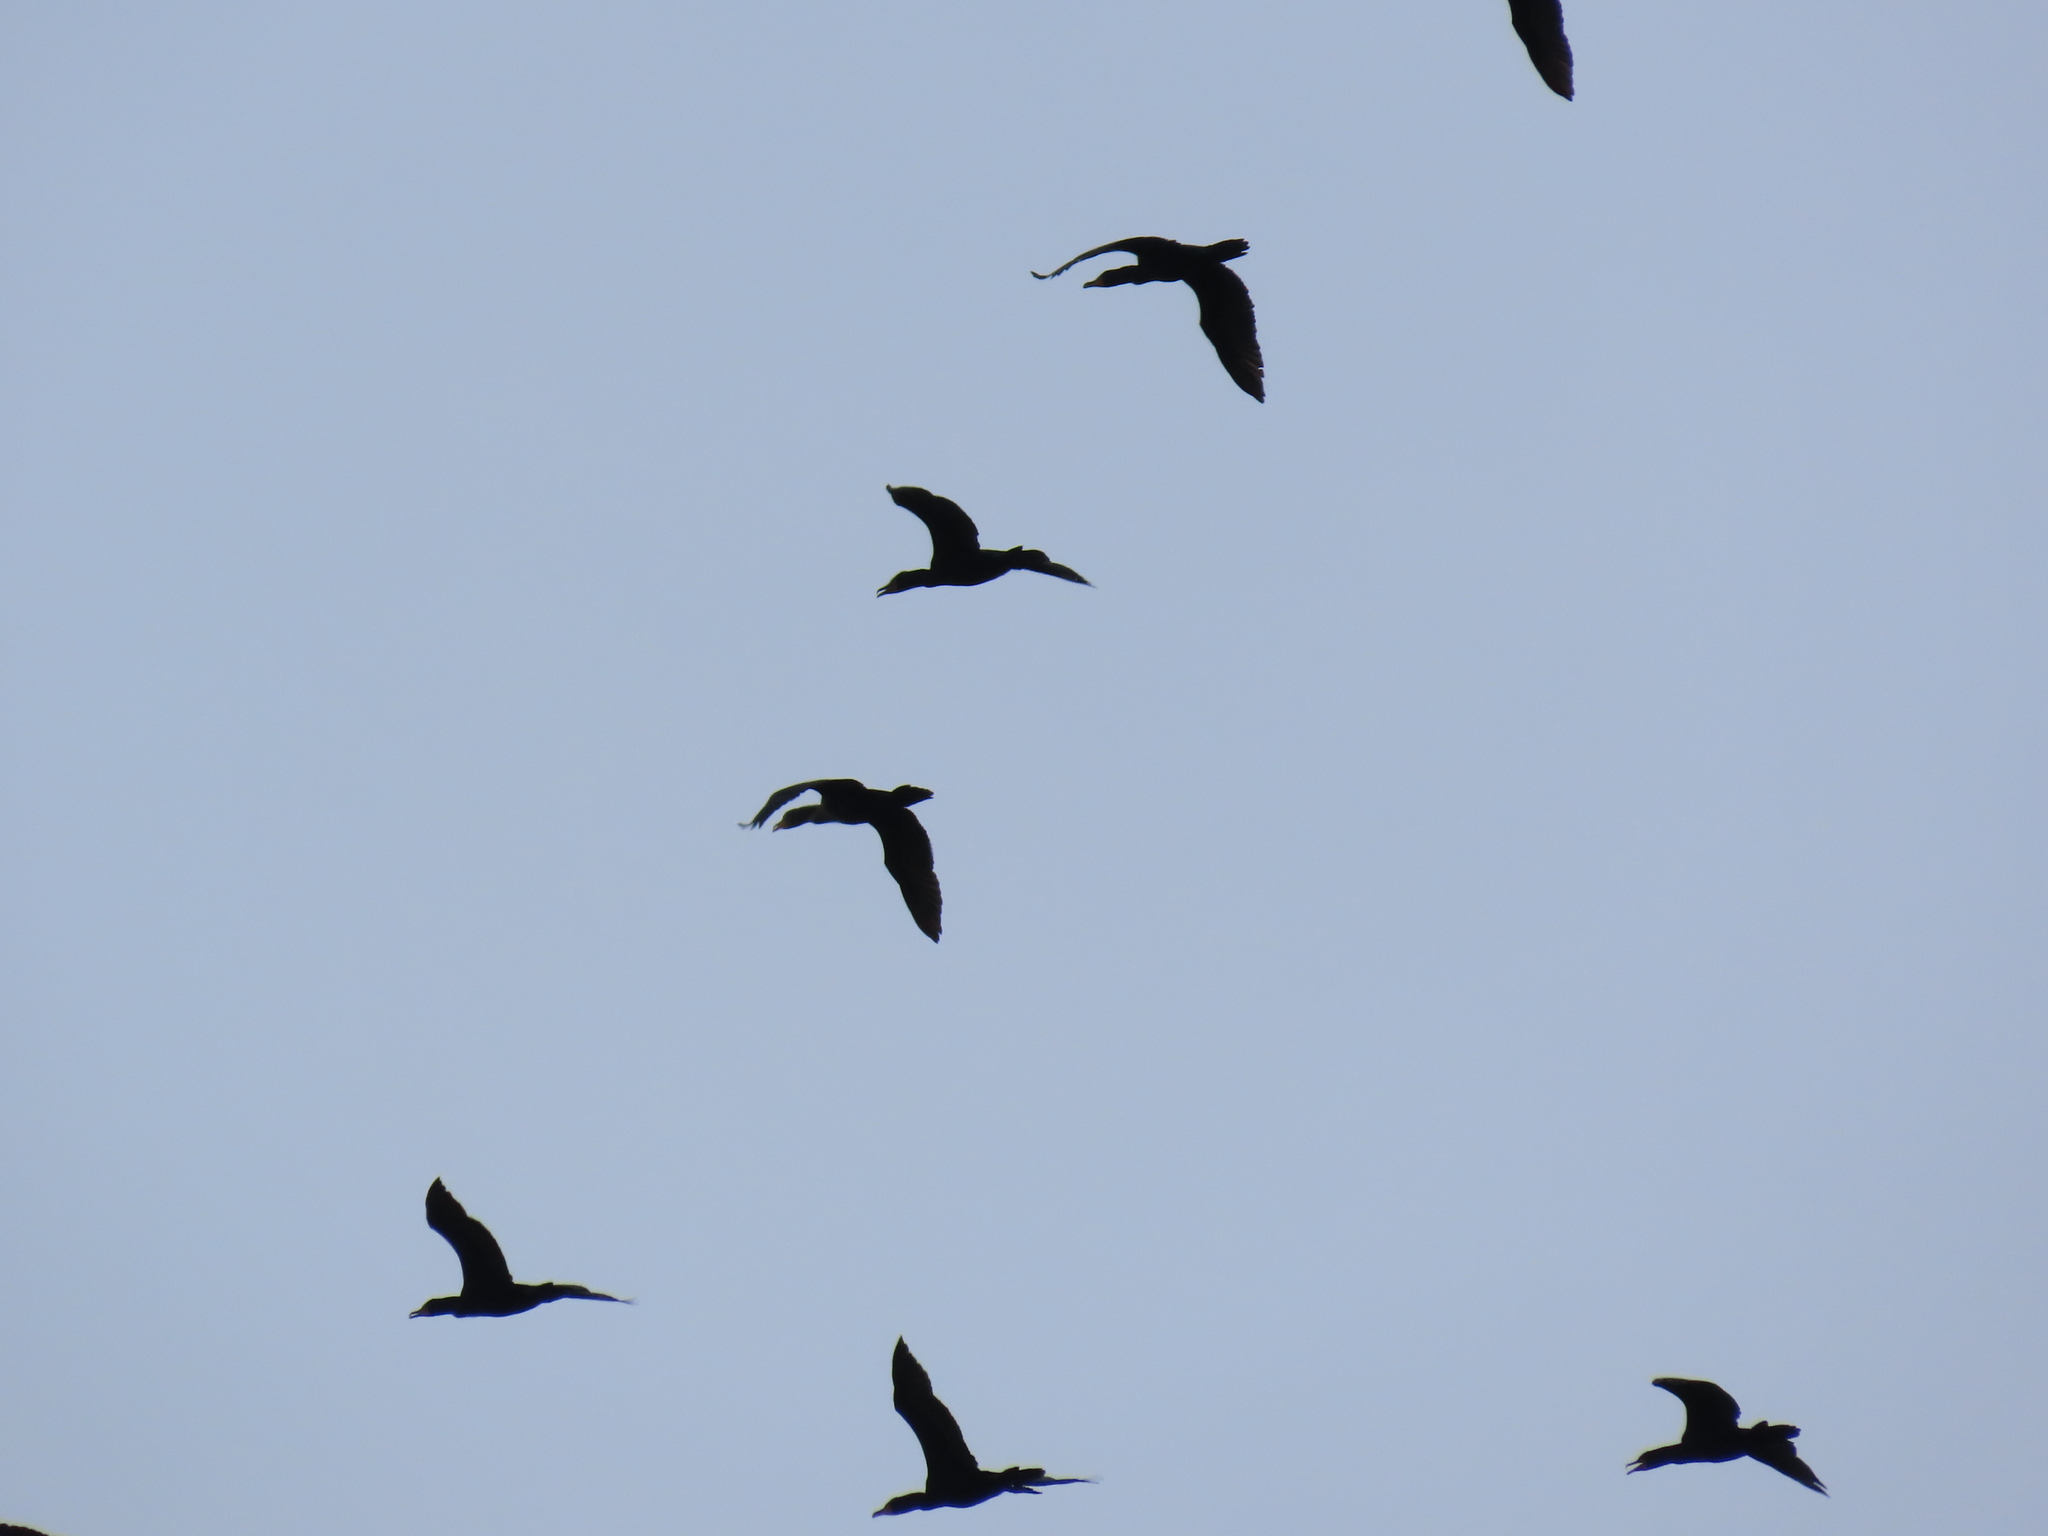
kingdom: Animalia
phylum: Chordata
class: Aves
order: Suliformes
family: Phalacrocoracidae
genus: Phalacrocorax
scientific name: Phalacrocorax auritus
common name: Double-crested cormorant
